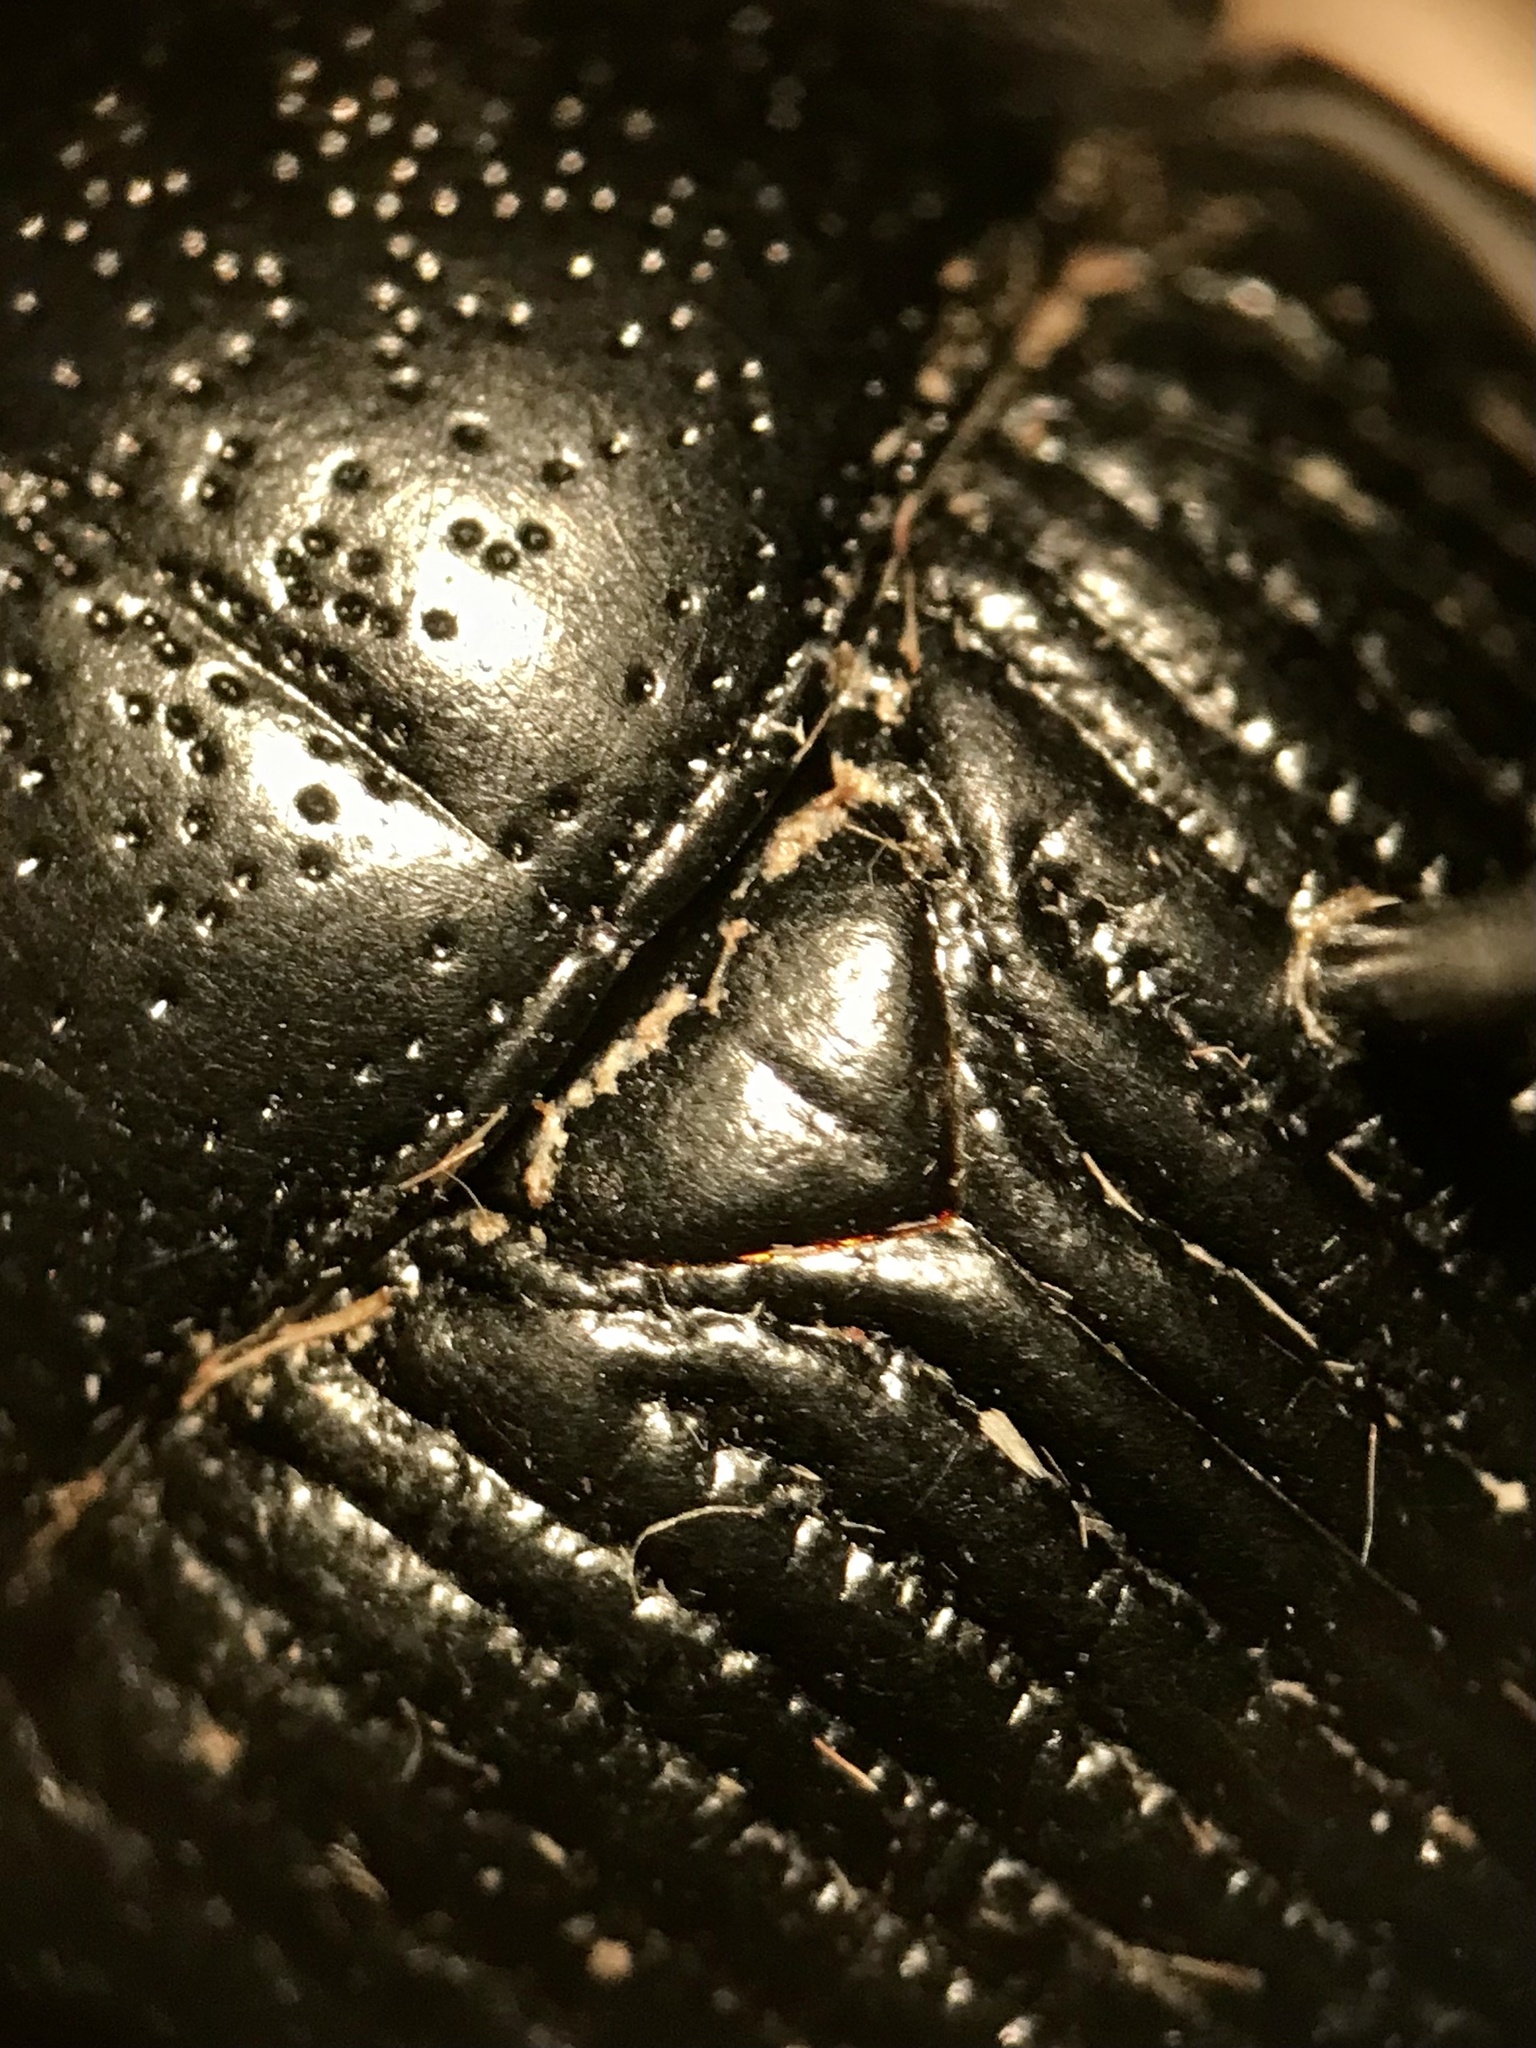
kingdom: Animalia
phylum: Arthropoda
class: Insecta
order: Coleoptera
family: Geotrupidae
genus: Anoplotrupes
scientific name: Anoplotrupes hornii
